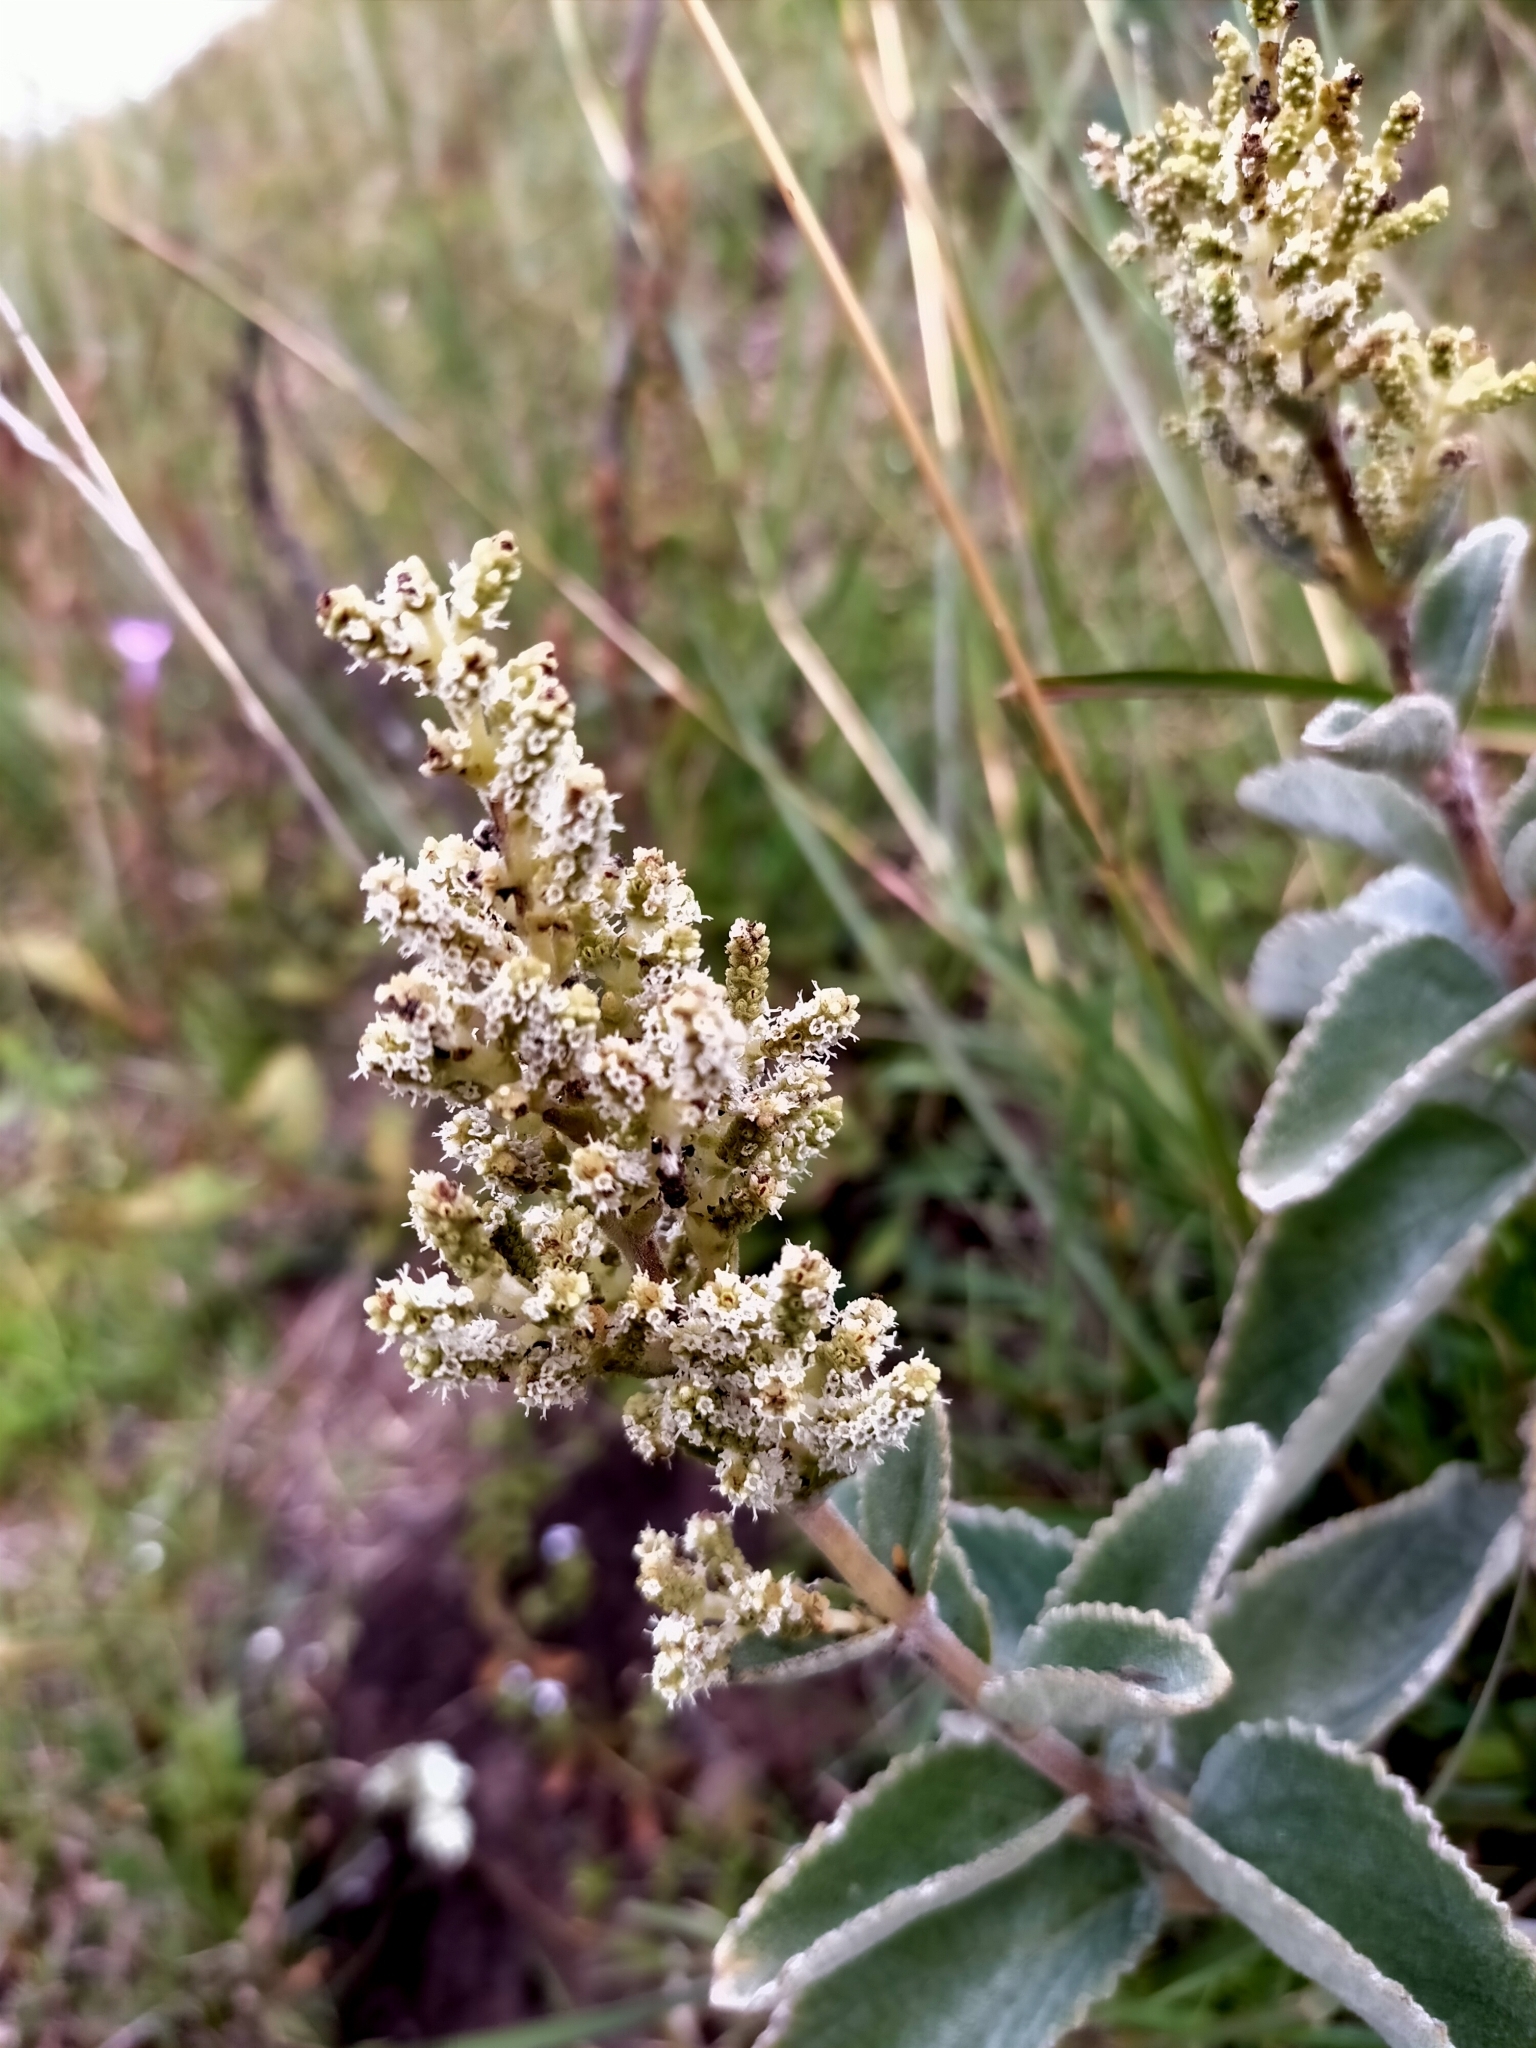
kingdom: Plantae
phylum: Tracheophyta
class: Magnoliopsida
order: Lamiales
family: Lamiaceae
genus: Tetradenia
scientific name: Tetradenia fruticosa
